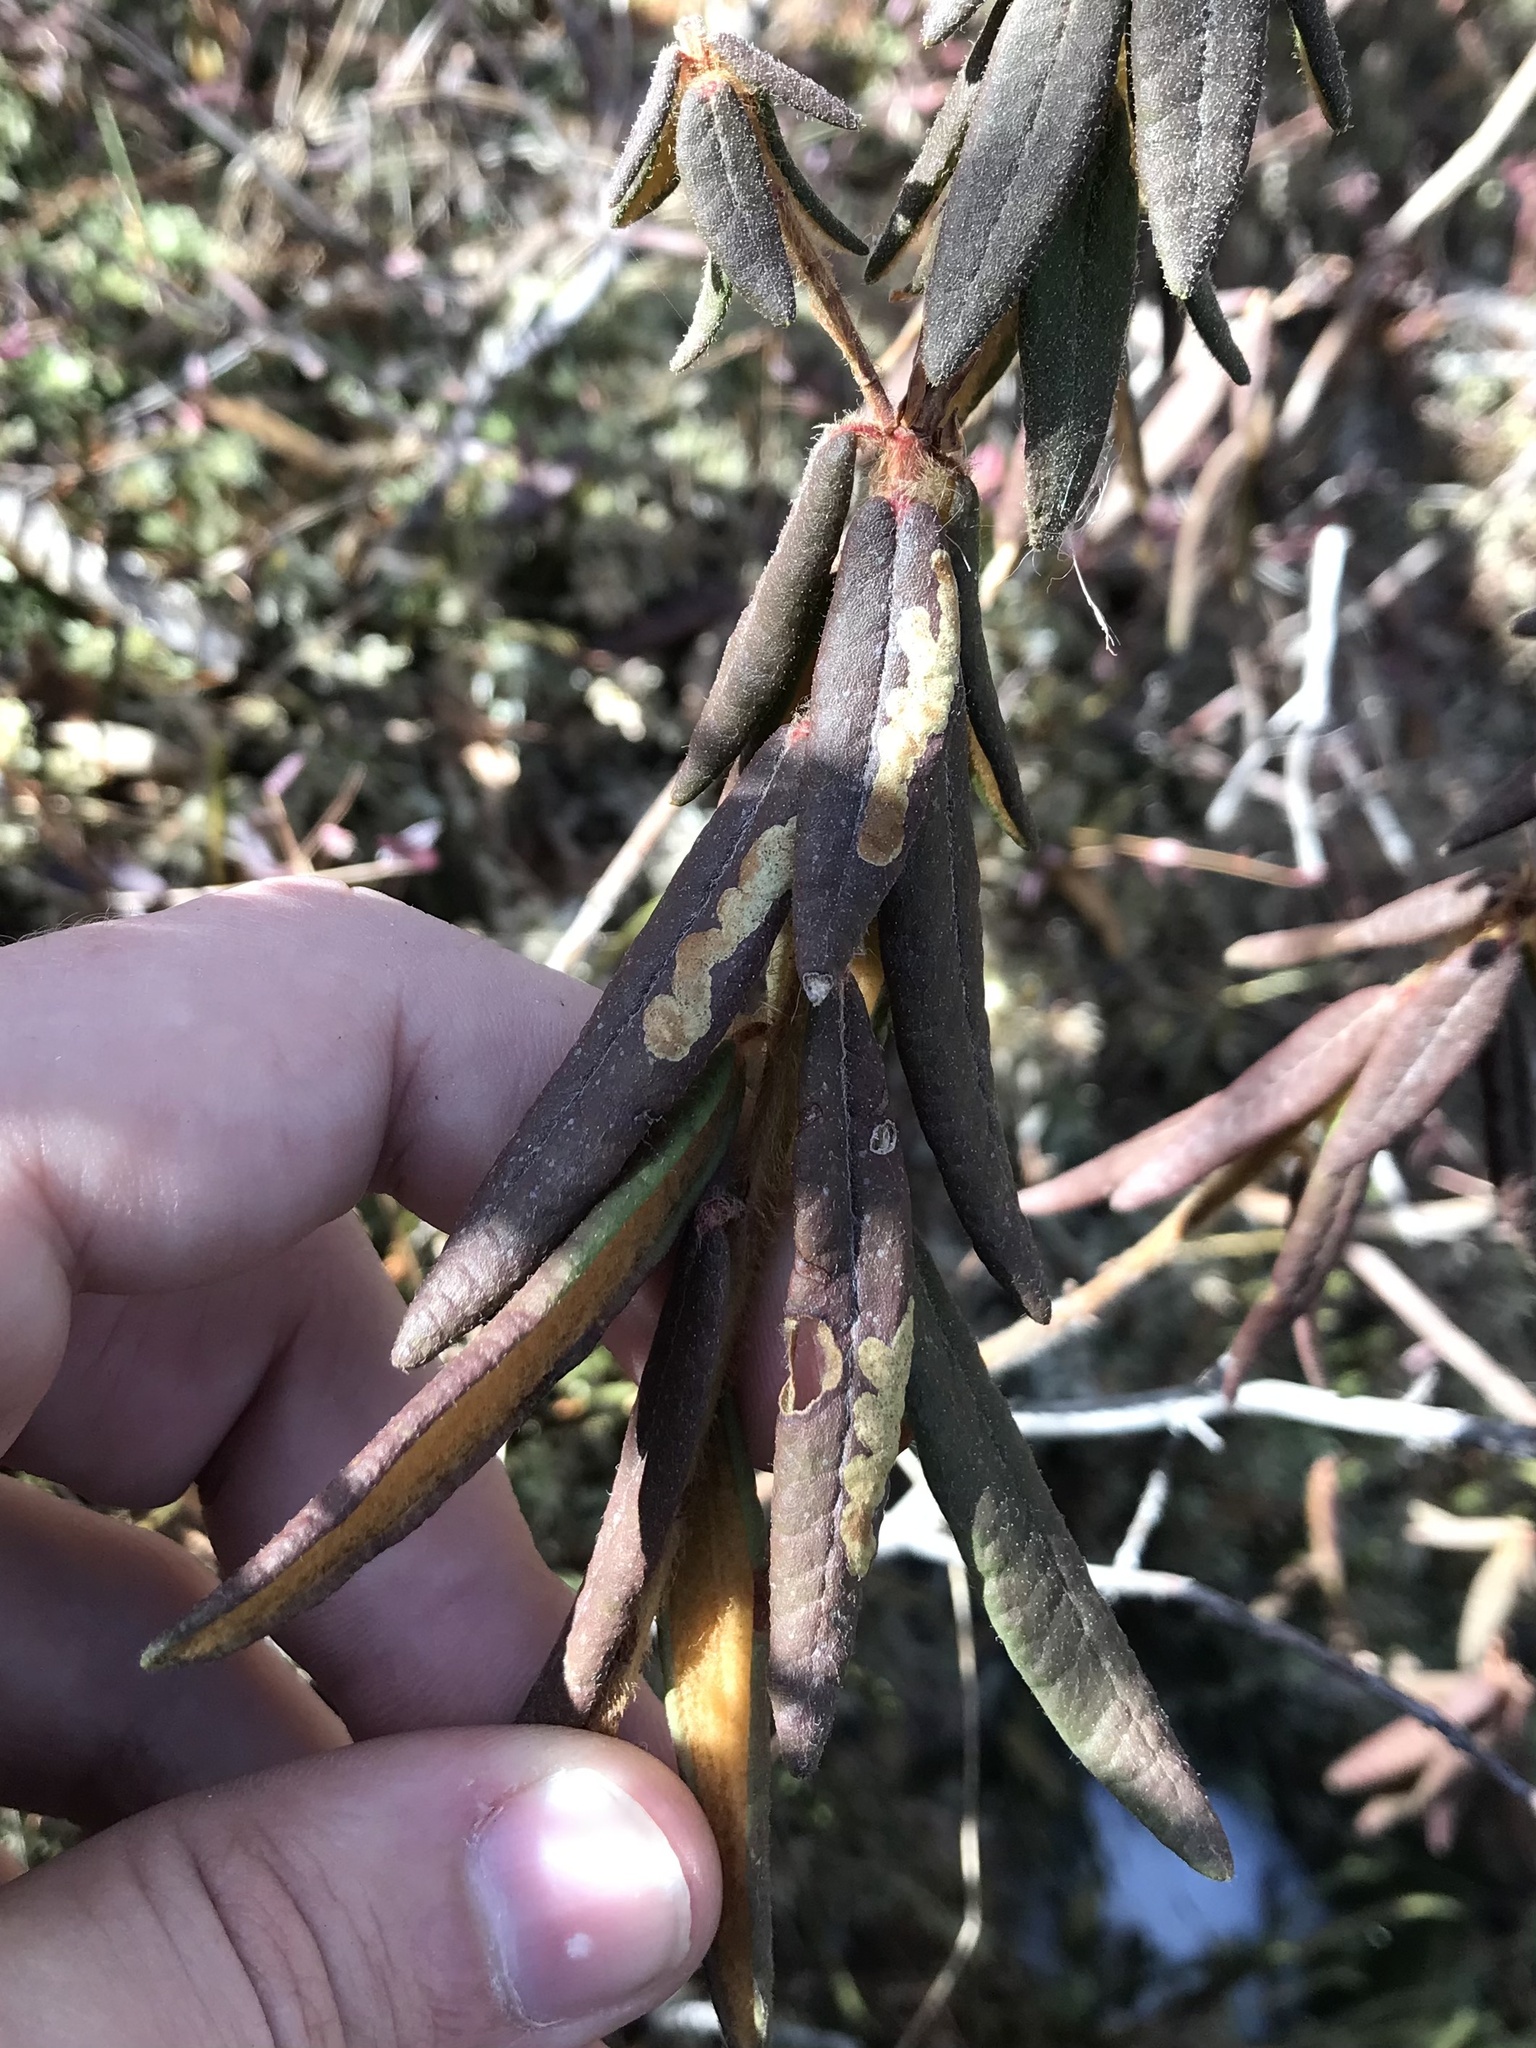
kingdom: Animalia
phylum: Arthropoda
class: Insecta
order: Lepidoptera
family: Gracillariidae
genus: Phyllonorycter
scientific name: Phyllonorycter ledella
